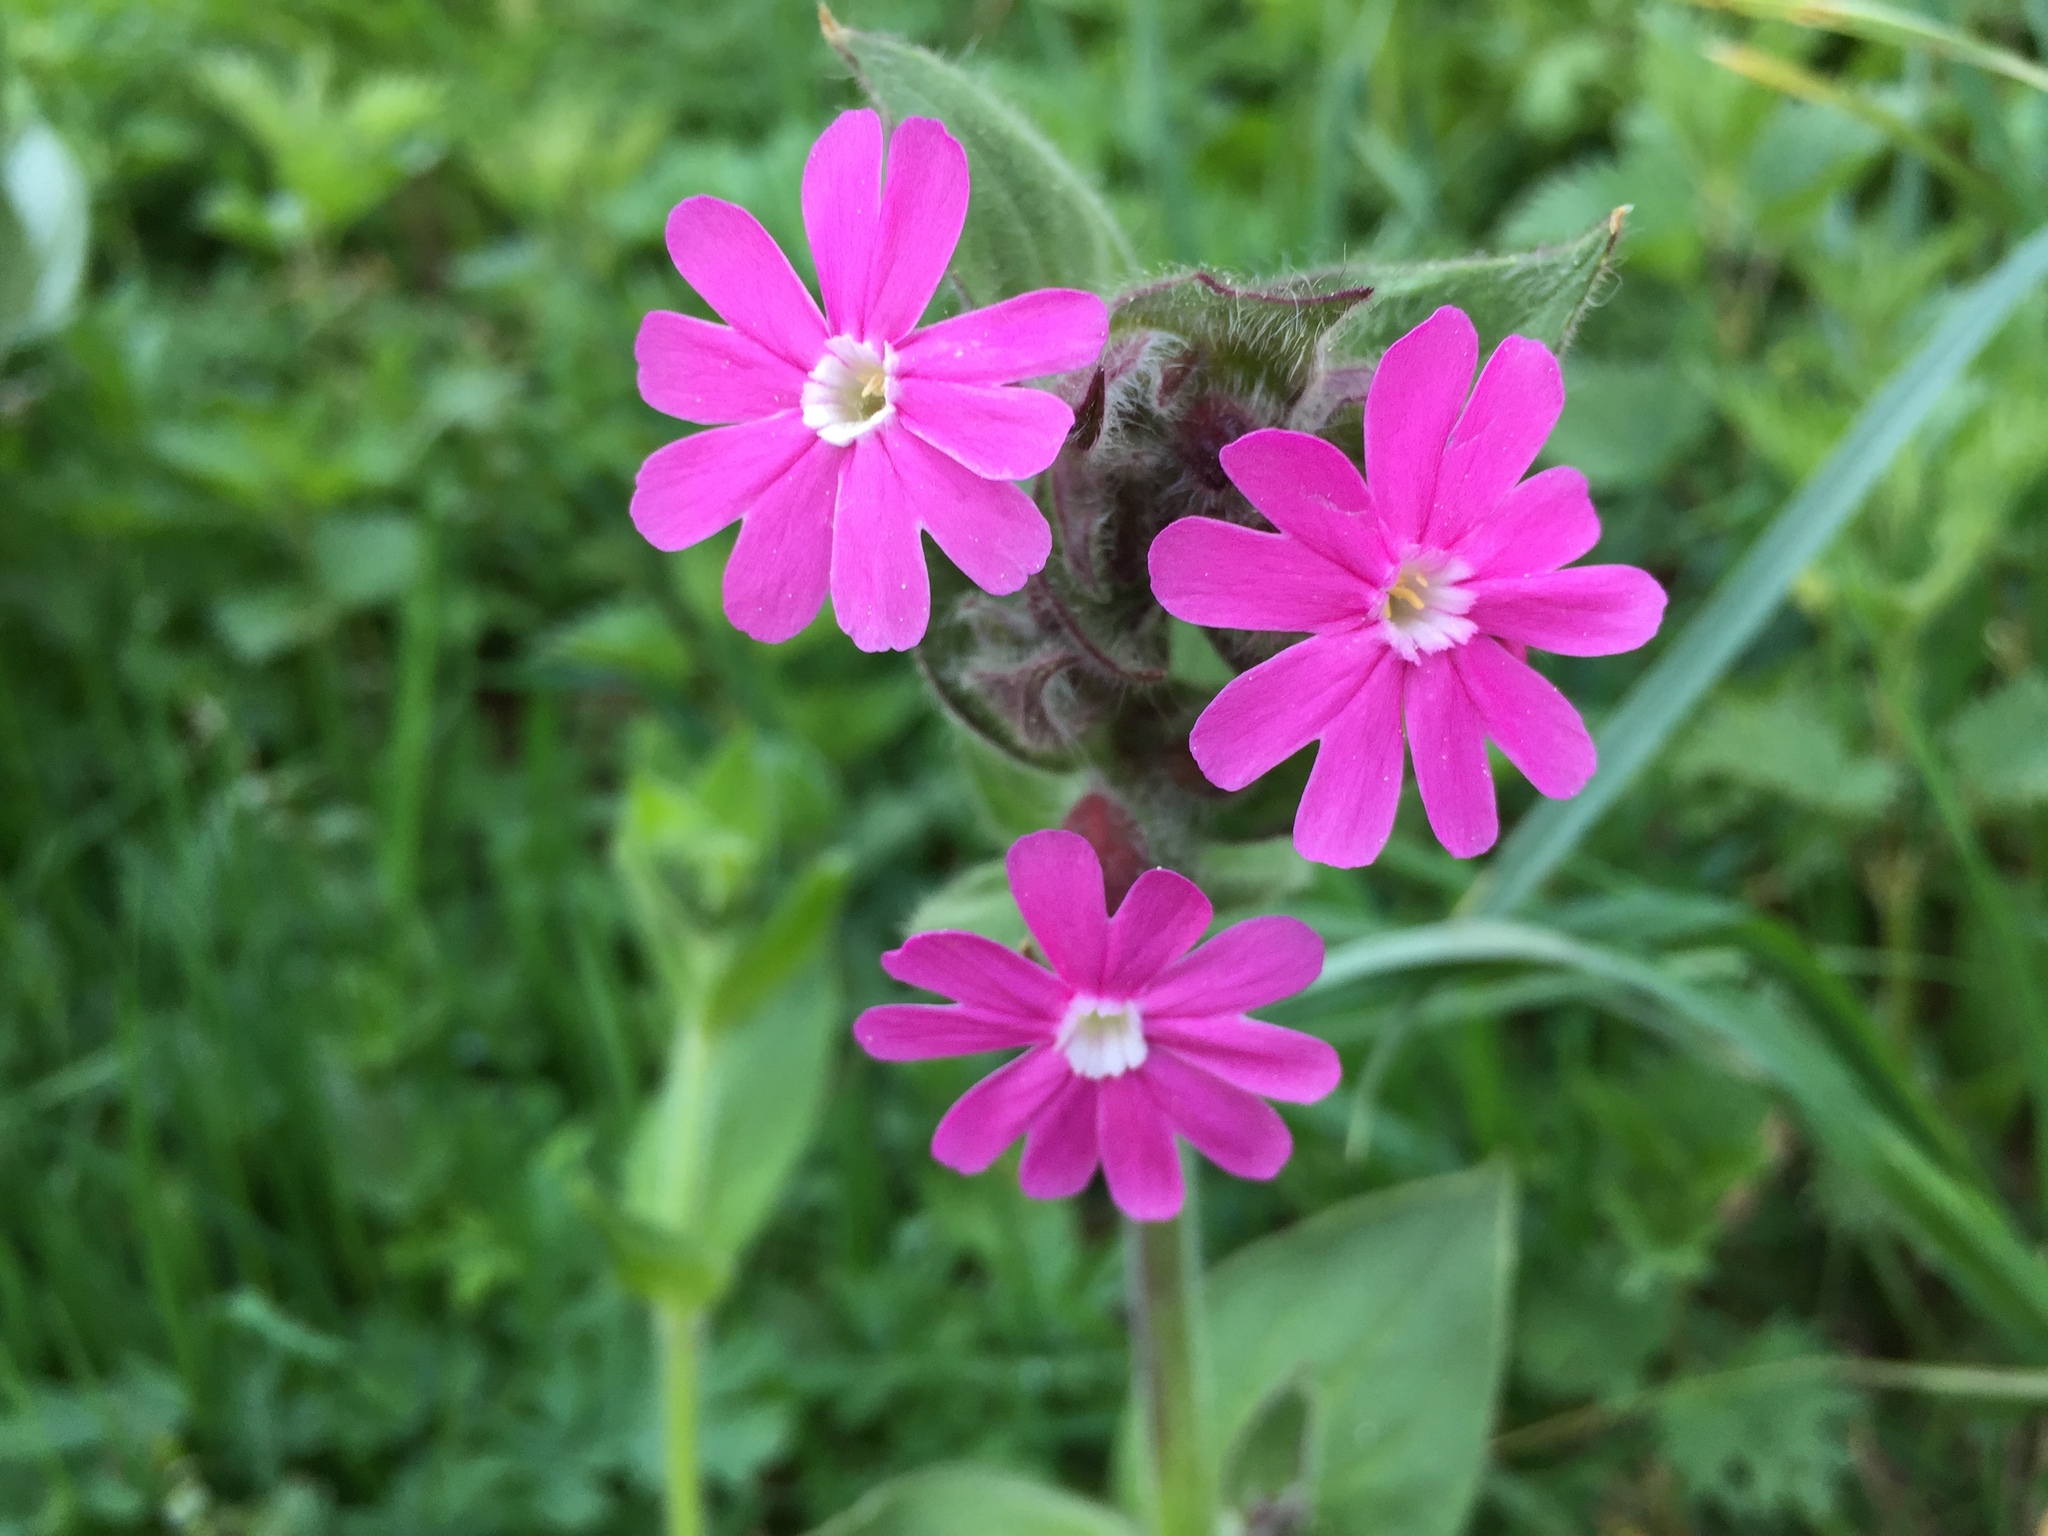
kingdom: Plantae
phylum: Tracheophyta
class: Magnoliopsida
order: Caryophyllales
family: Caryophyllaceae
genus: Silene
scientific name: Silene dioica
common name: Red campion
